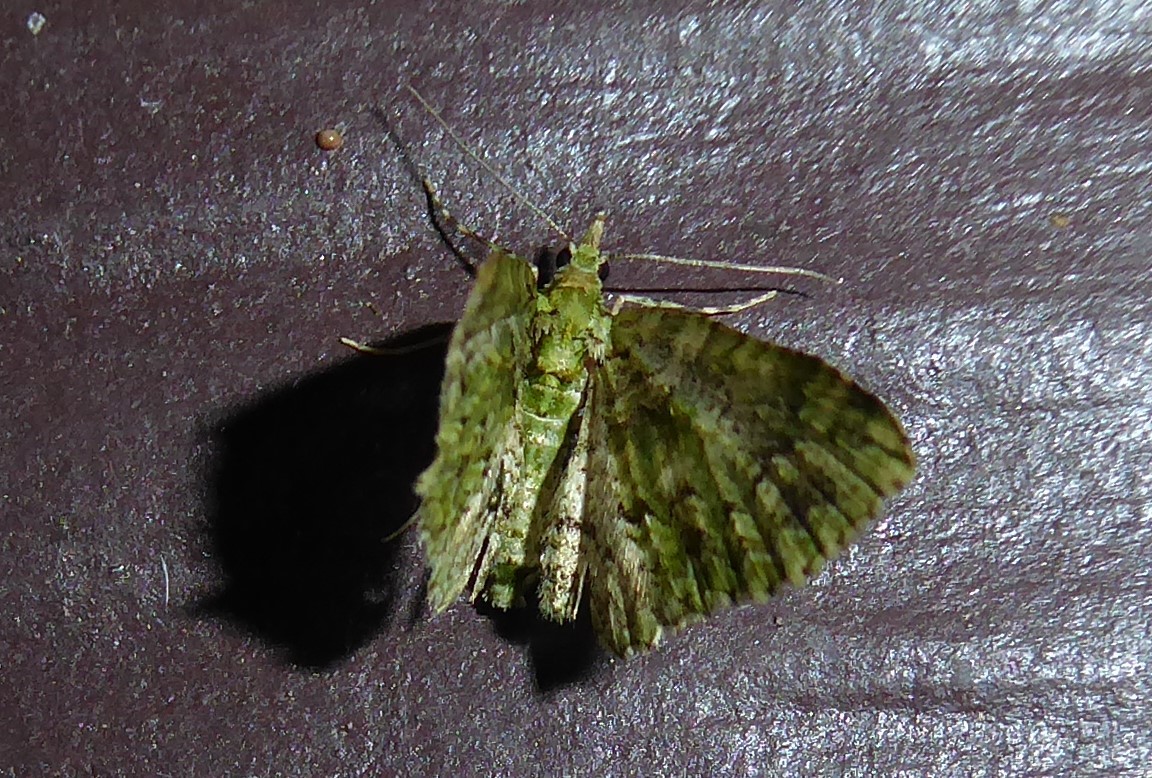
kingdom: Animalia
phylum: Arthropoda
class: Insecta
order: Lepidoptera
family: Geometridae
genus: Pasiphila
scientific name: Pasiphila muscosata
